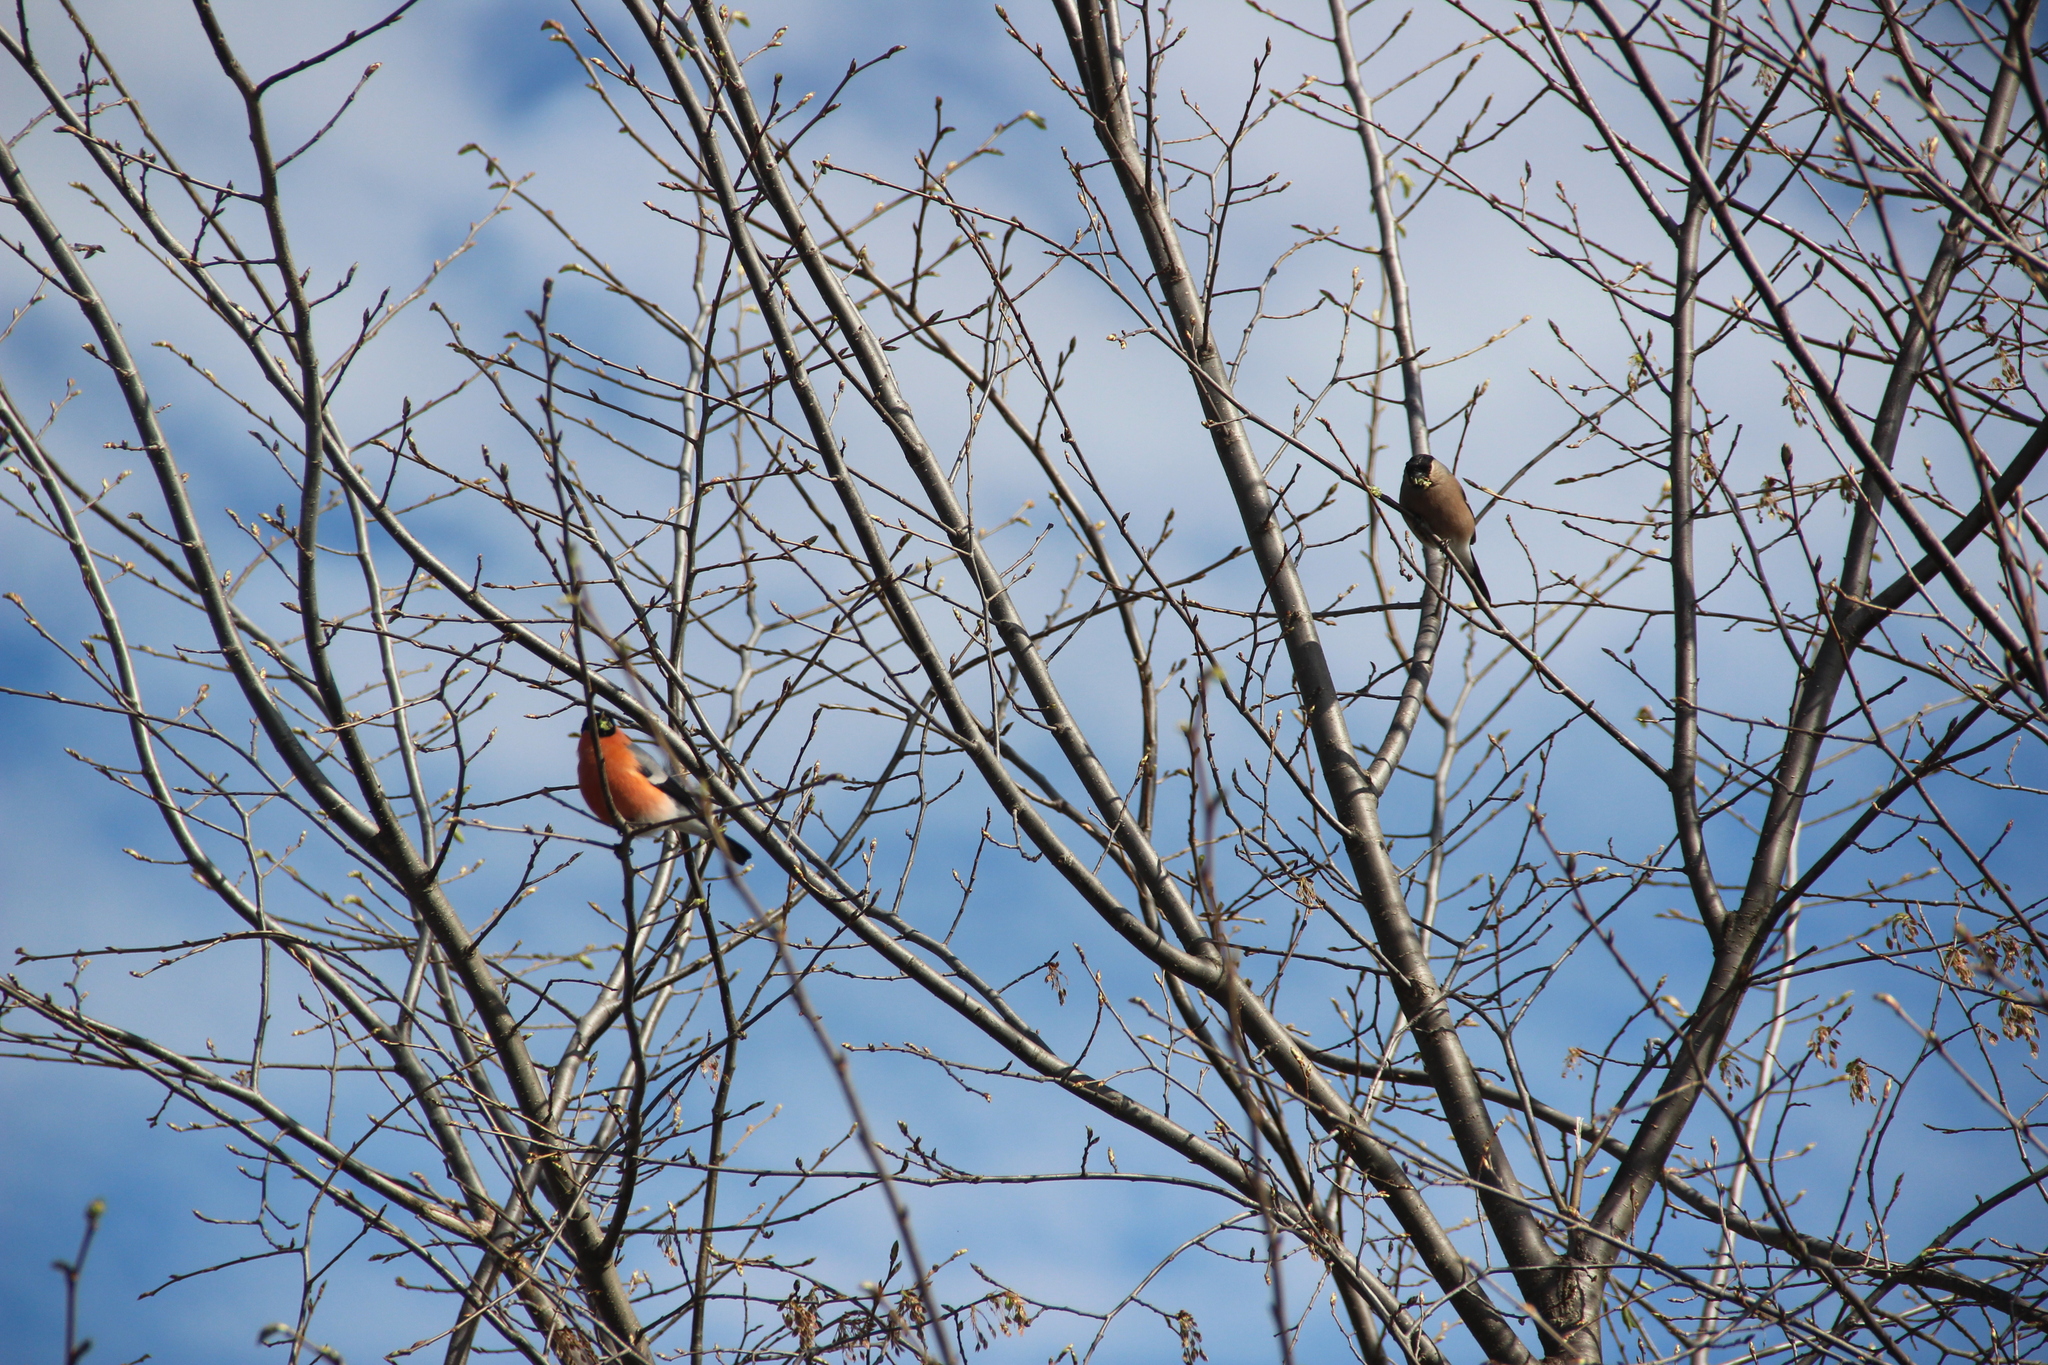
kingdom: Animalia
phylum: Chordata
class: Aves
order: Passeriformes
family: Fringillidae
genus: Pyrrhula
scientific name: Pyrrhula pyrrhula
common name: Eurasian bullfinch
